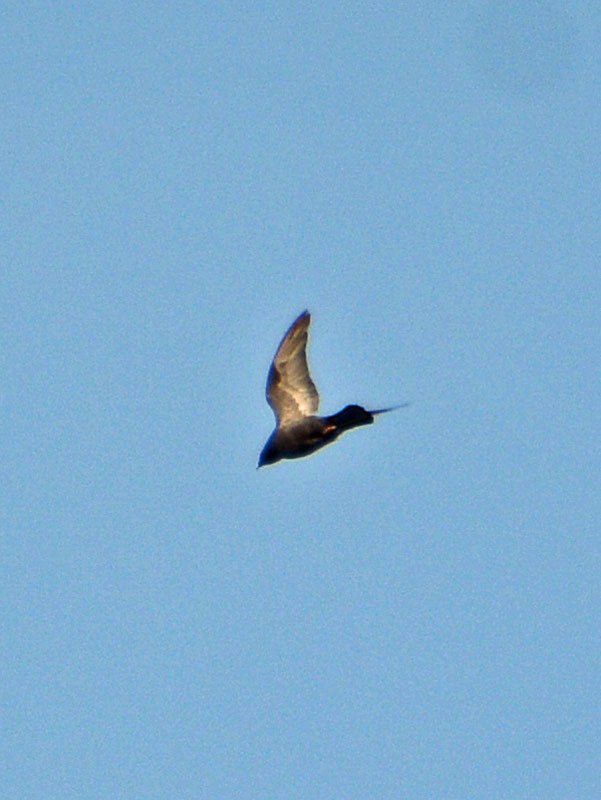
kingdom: Animalia
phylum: Chordata
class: Aves
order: Columbiformes
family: Columbidae
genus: Columba
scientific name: Columba livia
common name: Rock pigeon
